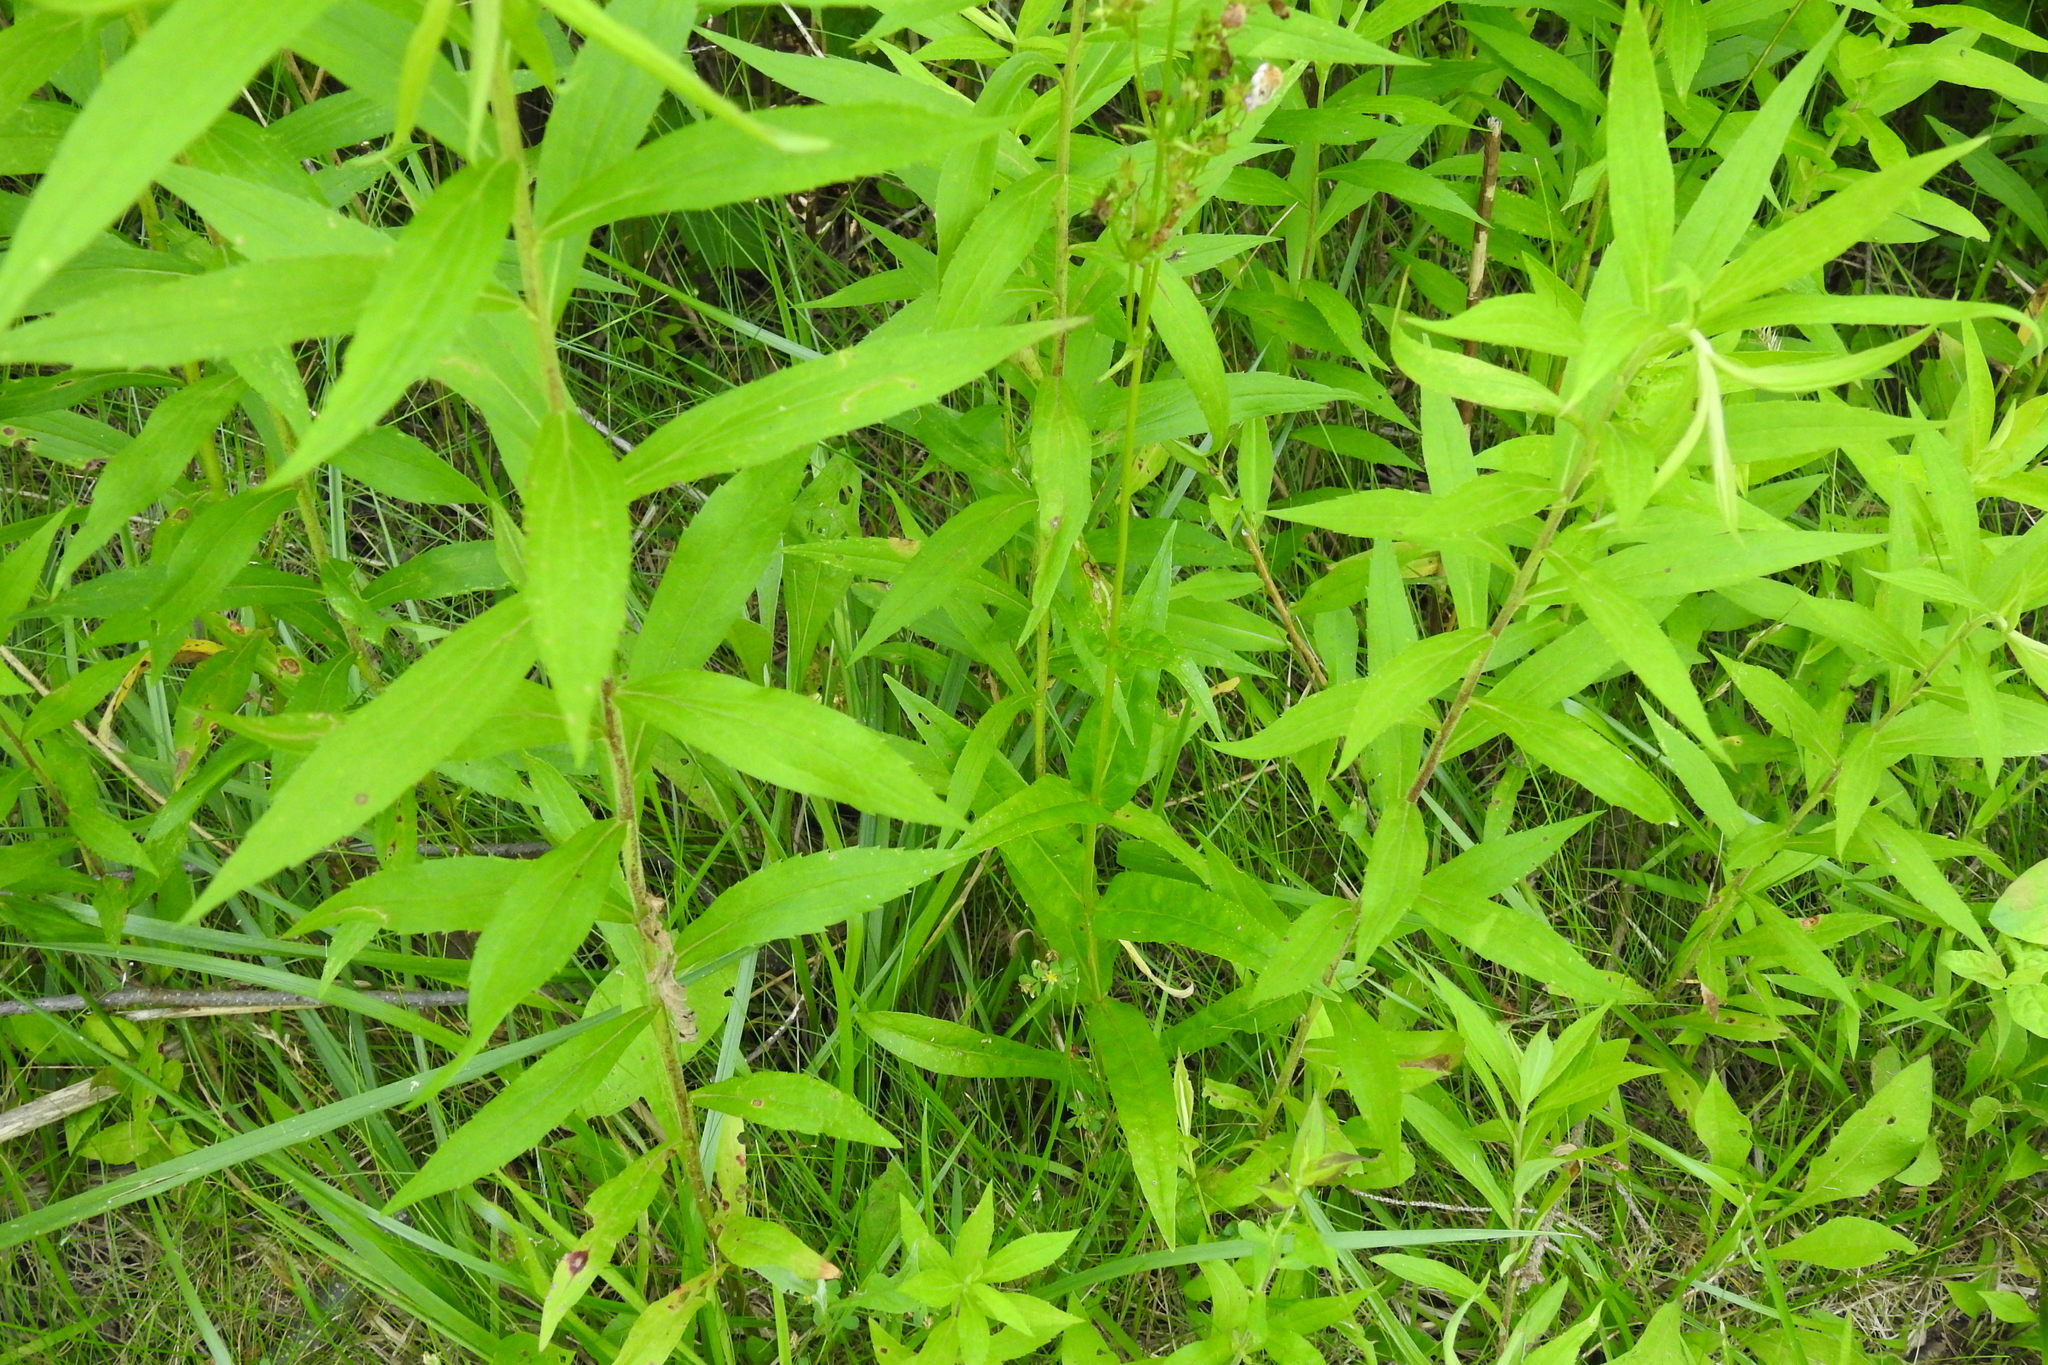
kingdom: Plantae
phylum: Tracheophyta
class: Magnoliopsida
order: Lamiales
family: Plantaginaceae
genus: Penstemon
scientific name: Penstemon digitalis
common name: Foxglove beardtongue
